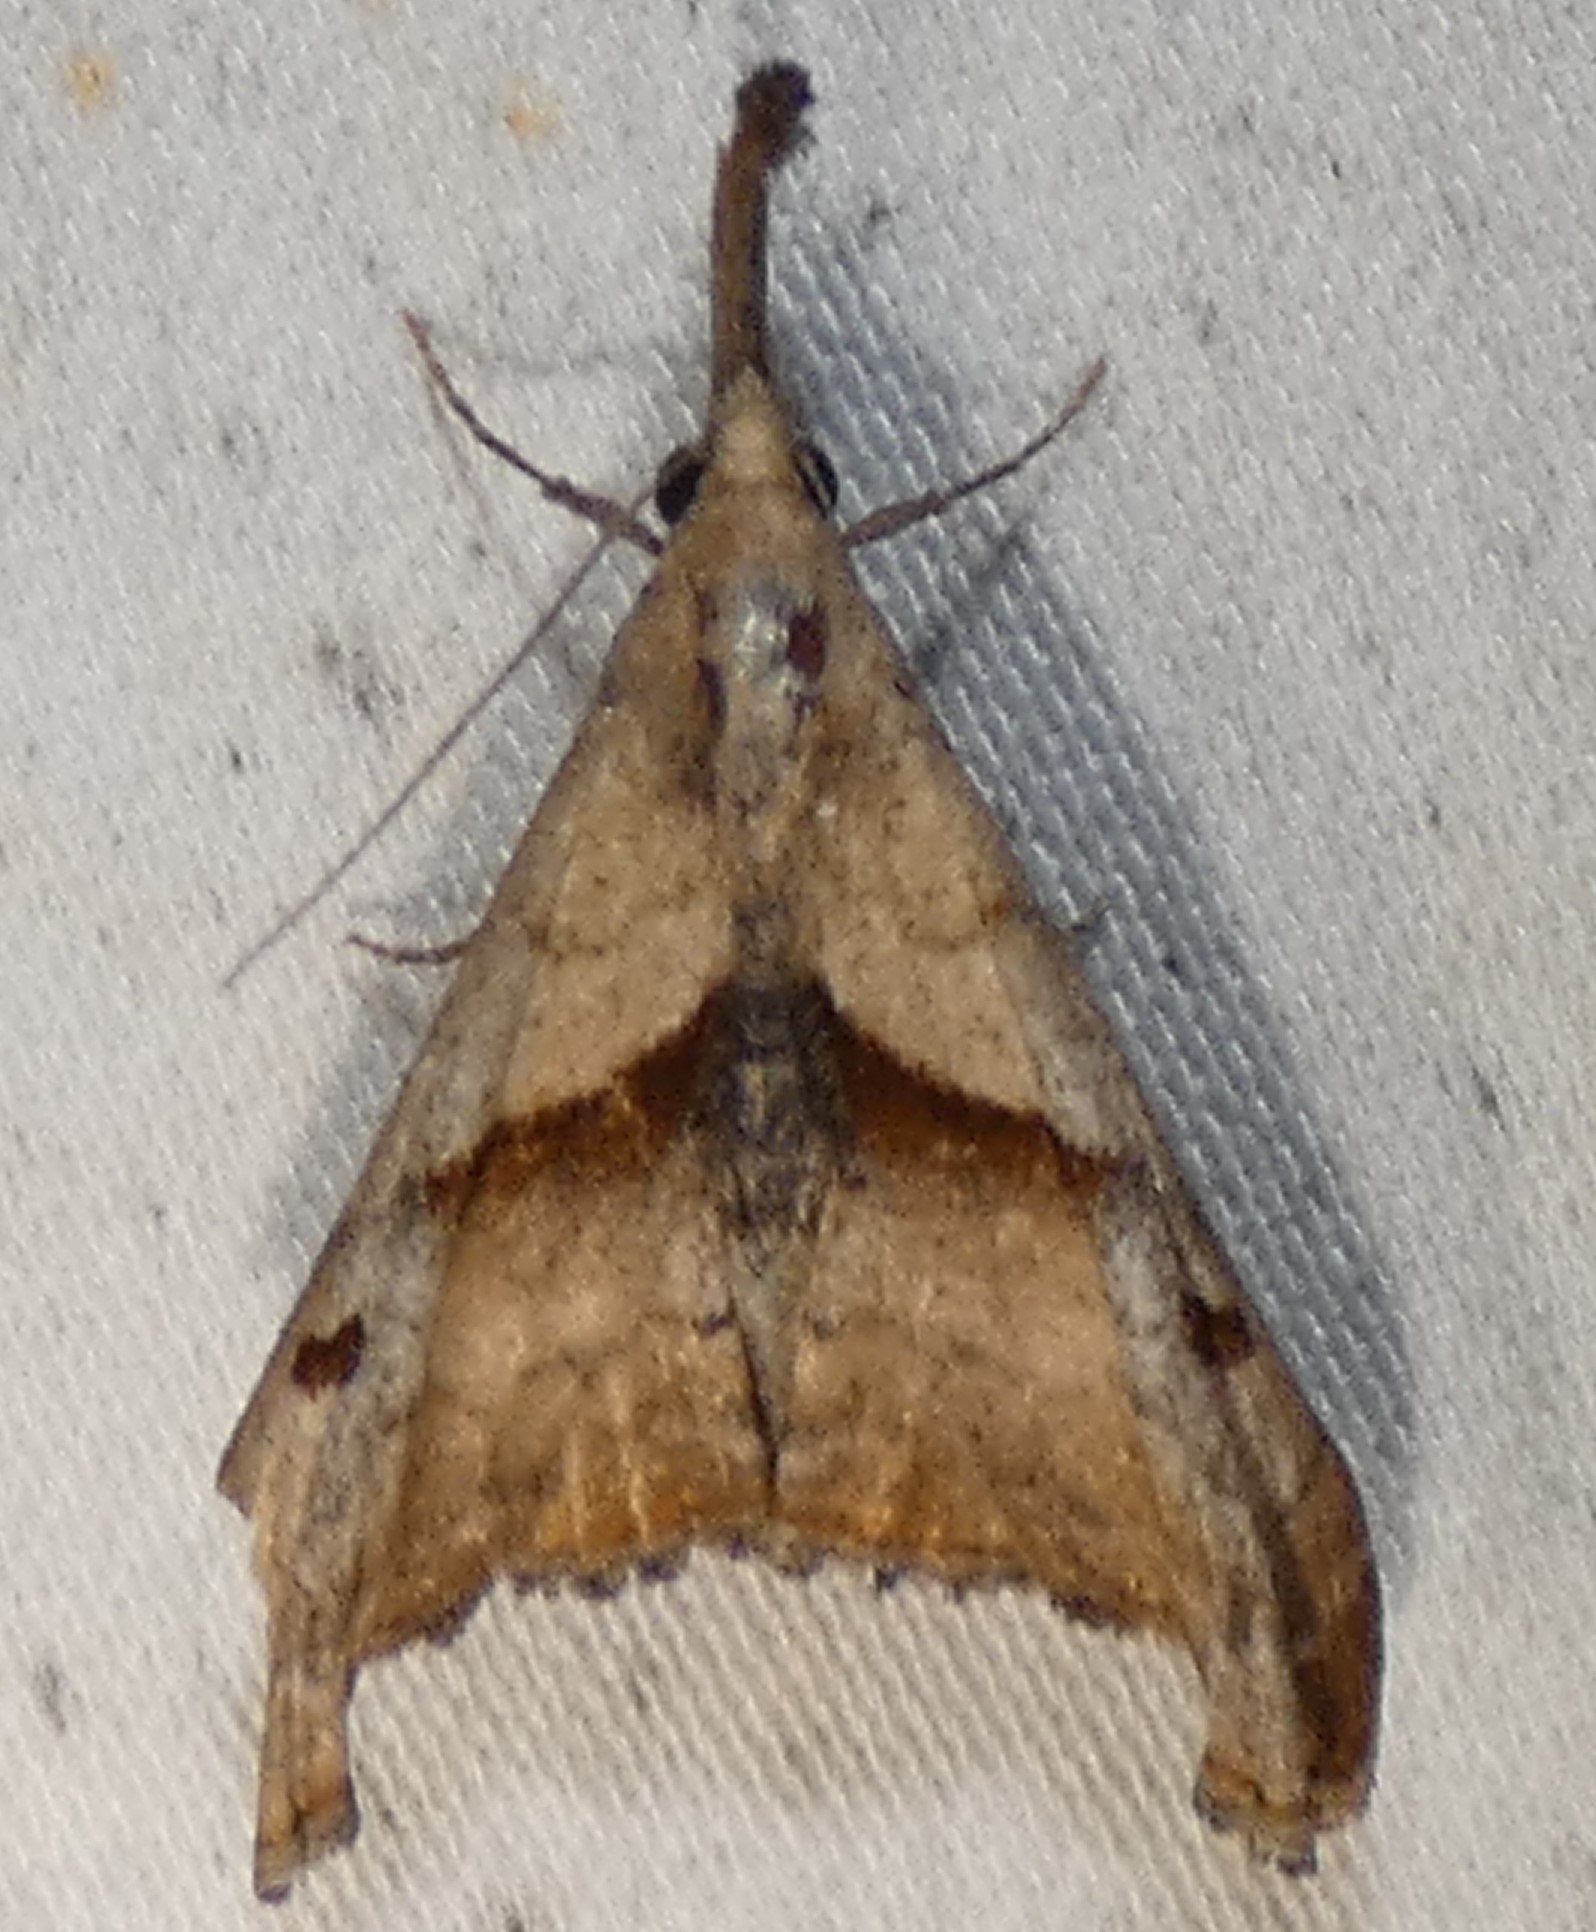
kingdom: Animalia
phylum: Arthropoda
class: Insecta
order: Lepidoptera
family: Erebidae
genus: Palthis
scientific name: Palthis angulalis
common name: Dark-spotted palthis moth
